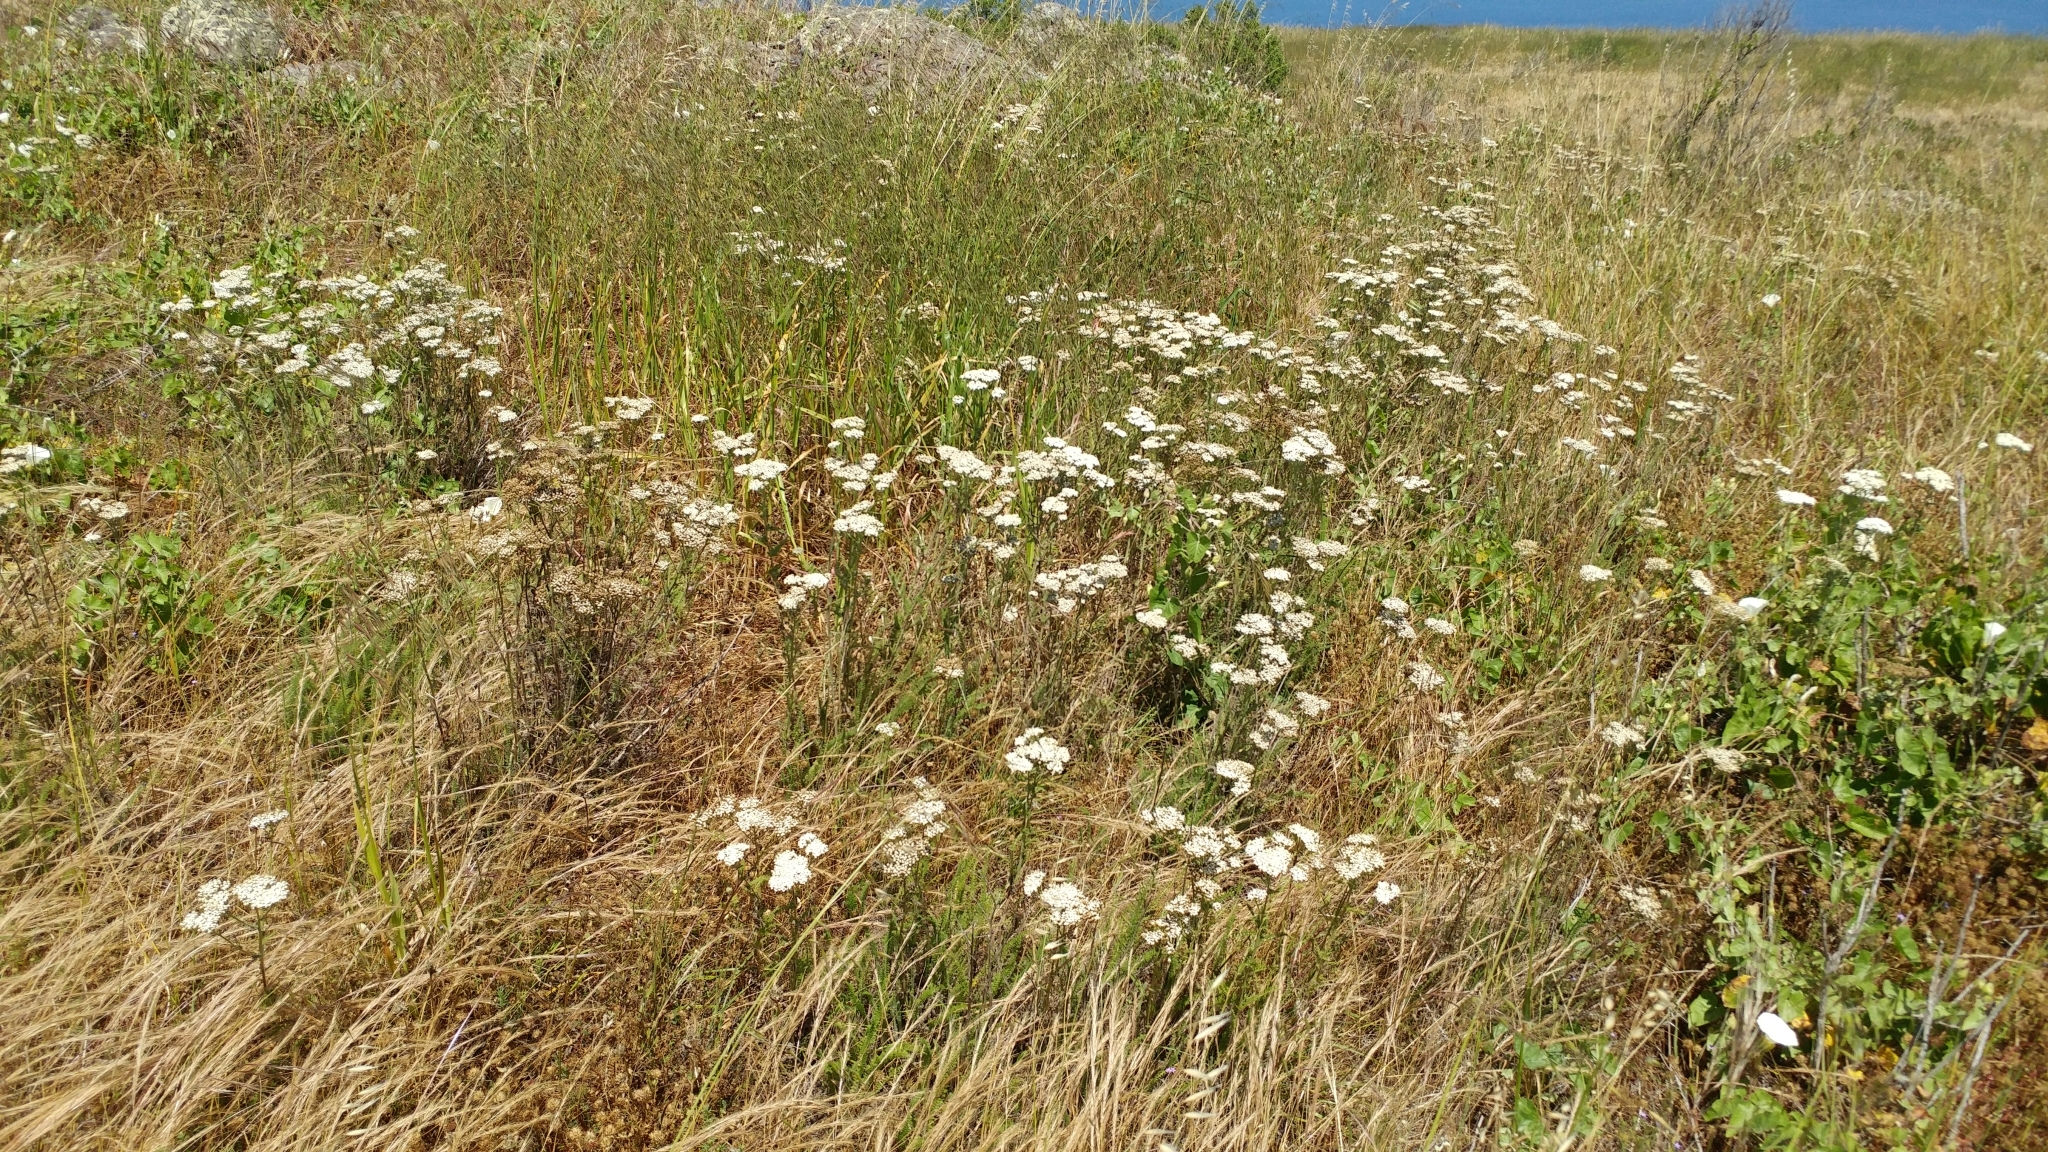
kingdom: Plantae
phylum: Tracheophyta
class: Magnoliopsida
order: Asterales
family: Asteraceae
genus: Achillea
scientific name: Achillea millefolium
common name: Yarrow
